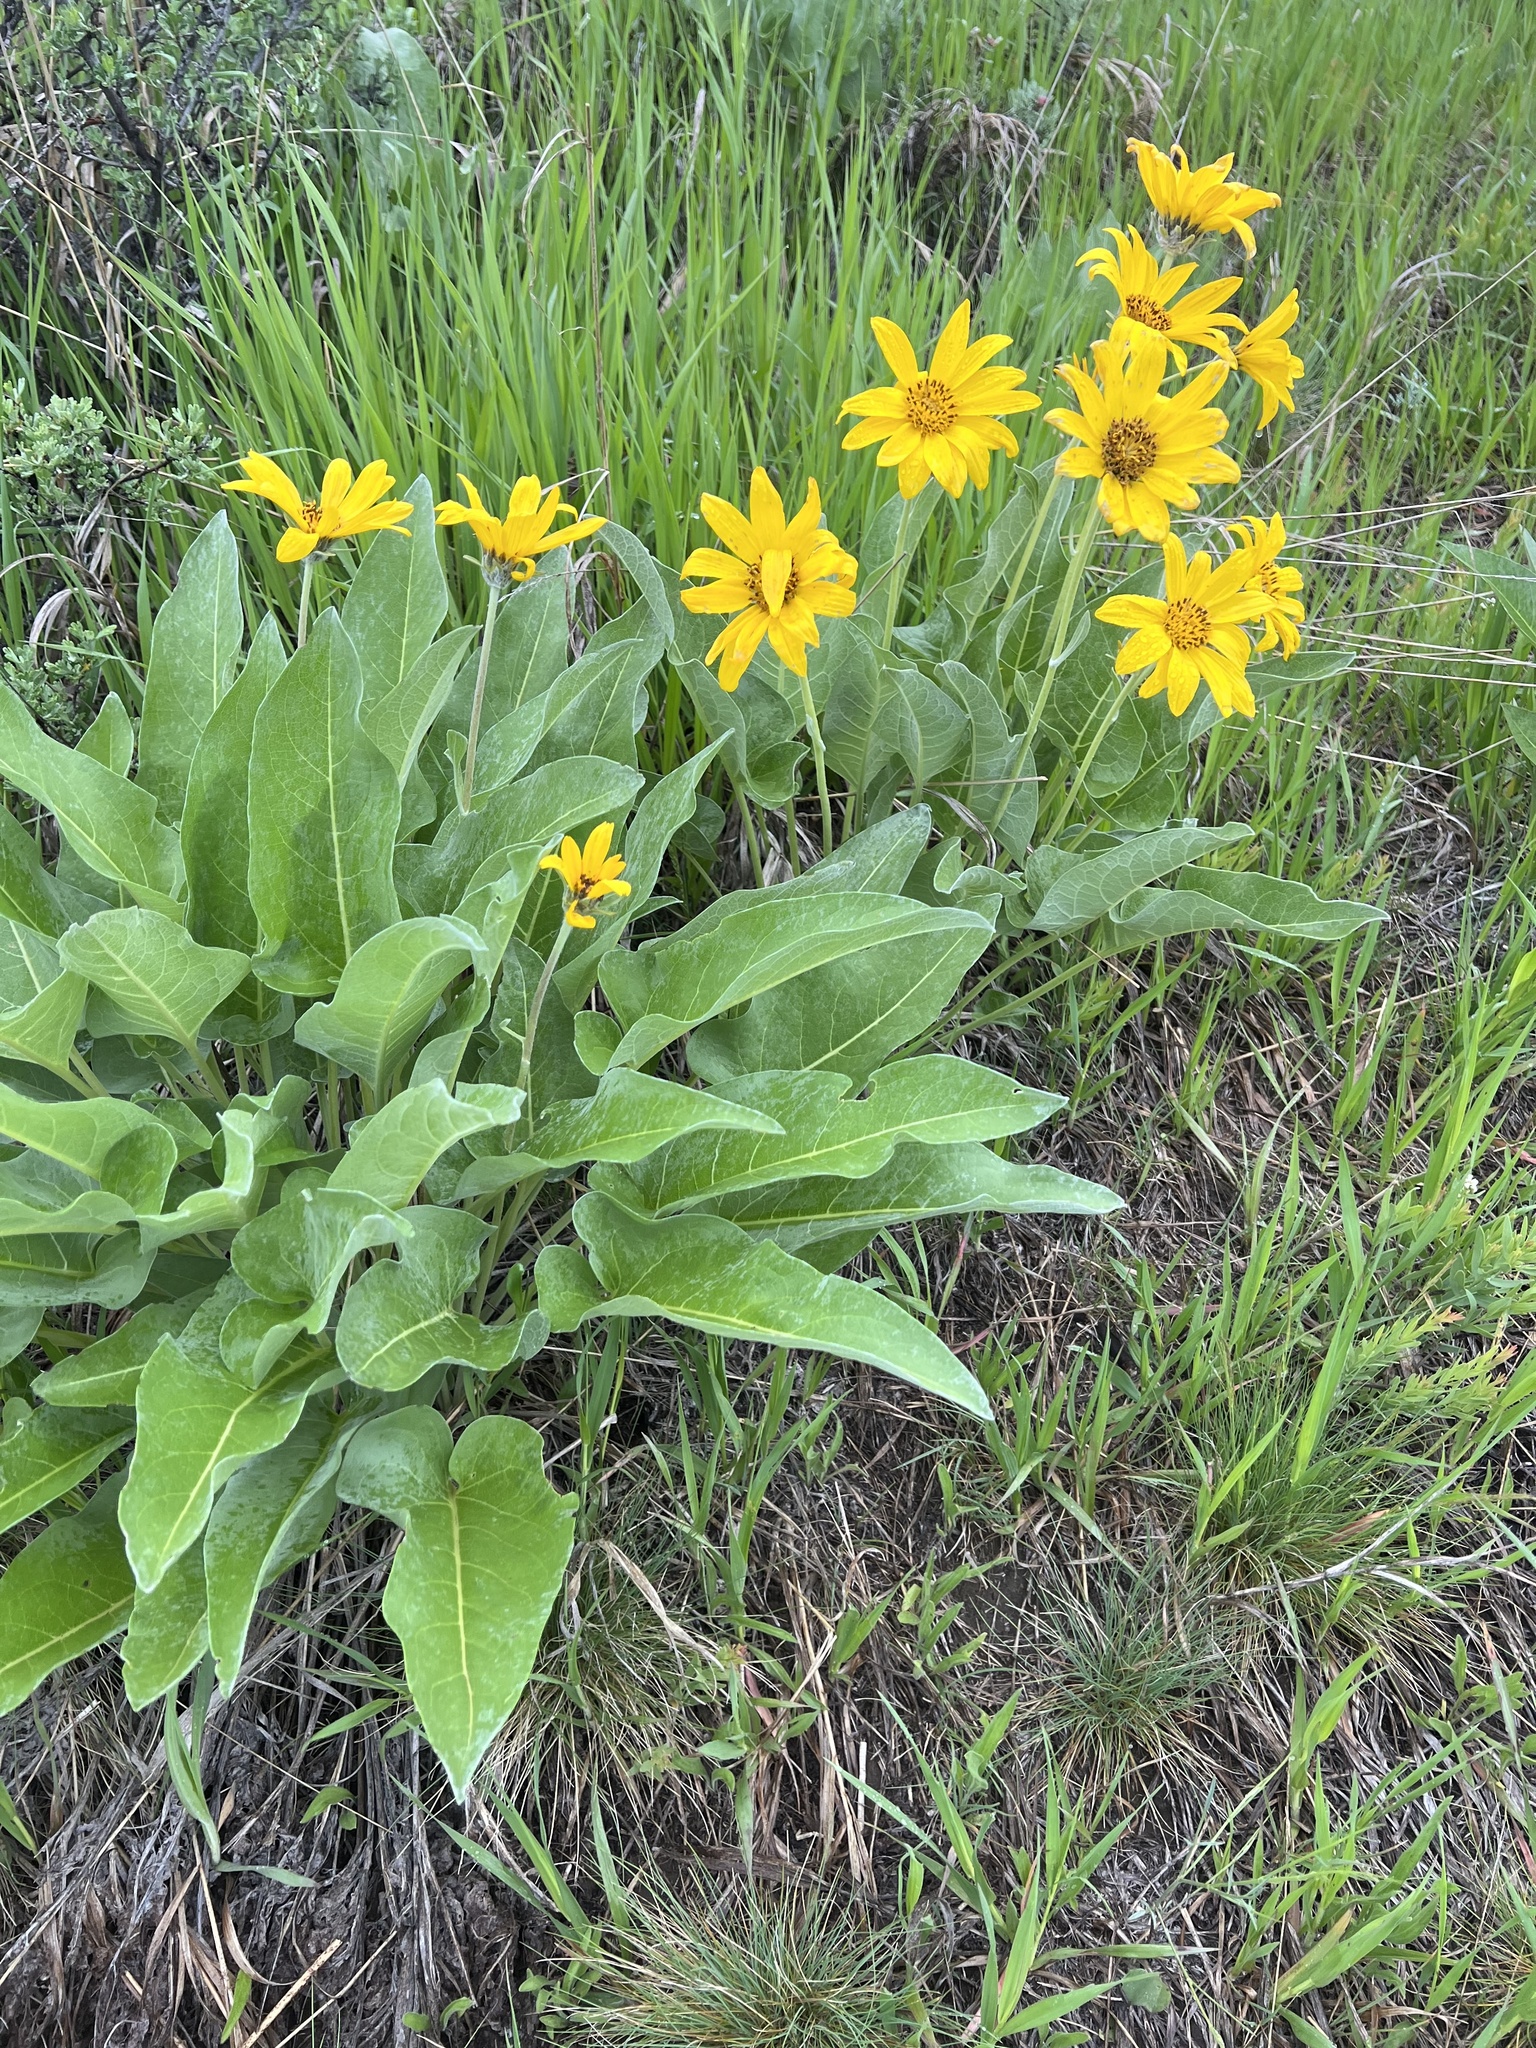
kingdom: Plantae
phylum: Tracheophyta
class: Magnoliopsida
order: Asterales
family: Asteraceae
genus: Wyethia
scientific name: Wyethia sagittata
